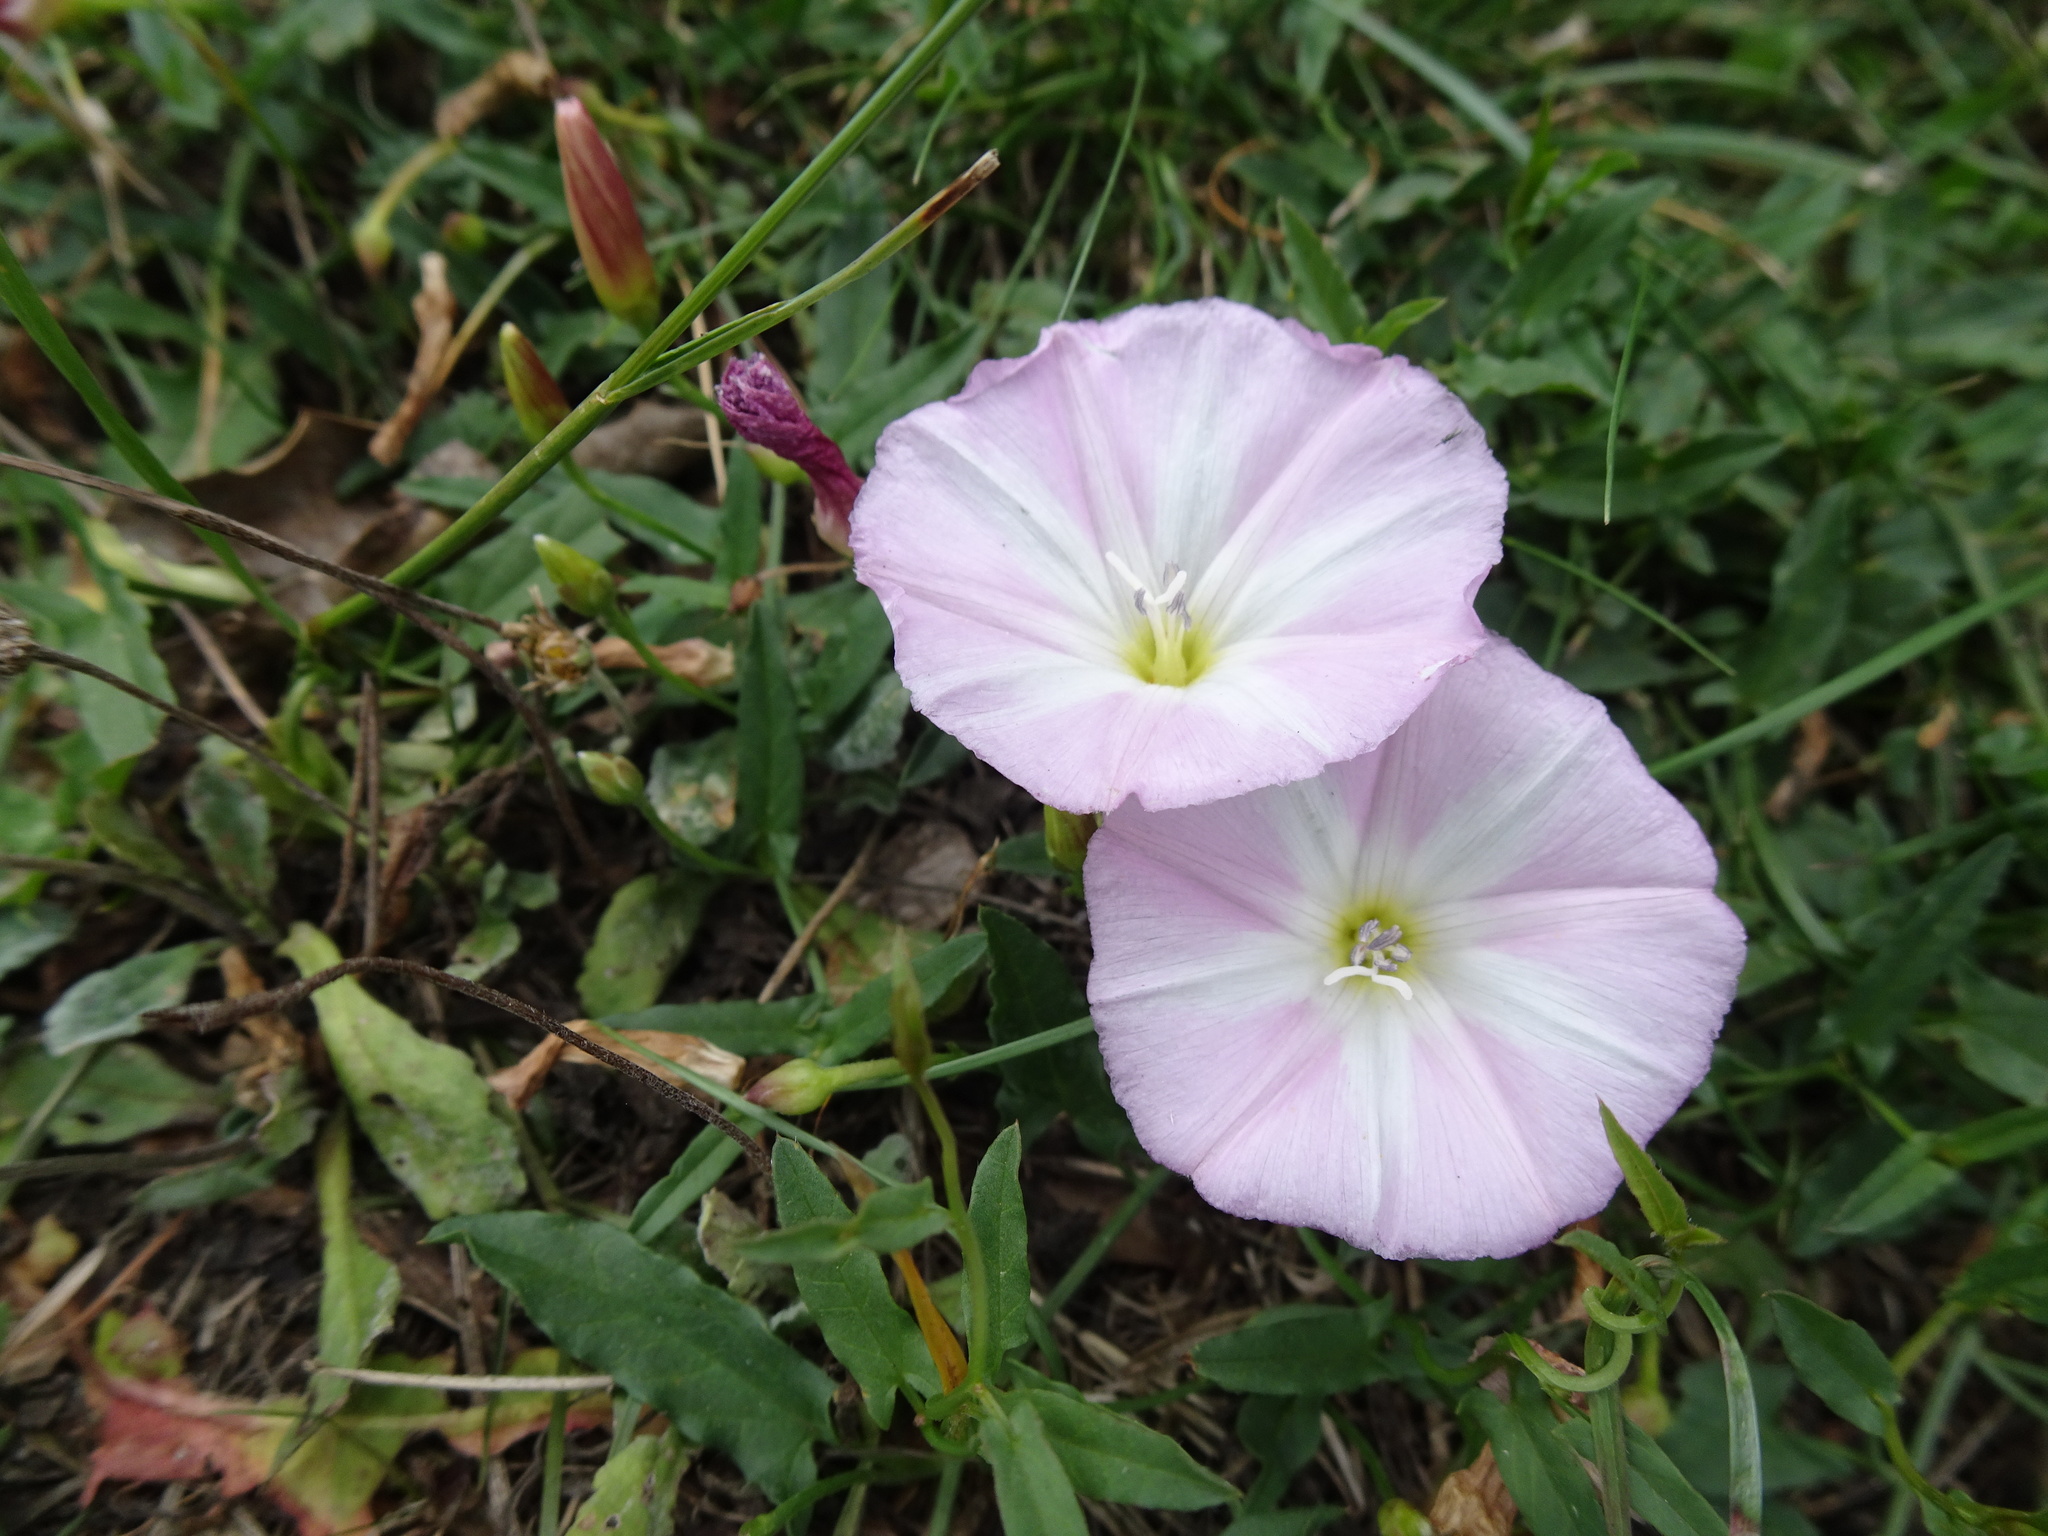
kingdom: Plantae
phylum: Tracheophyta
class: Magnoliopsida
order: Solanales
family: Convolvulaceae
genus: Convolvulus
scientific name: Convolvulus arvensis
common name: Field bindweed
